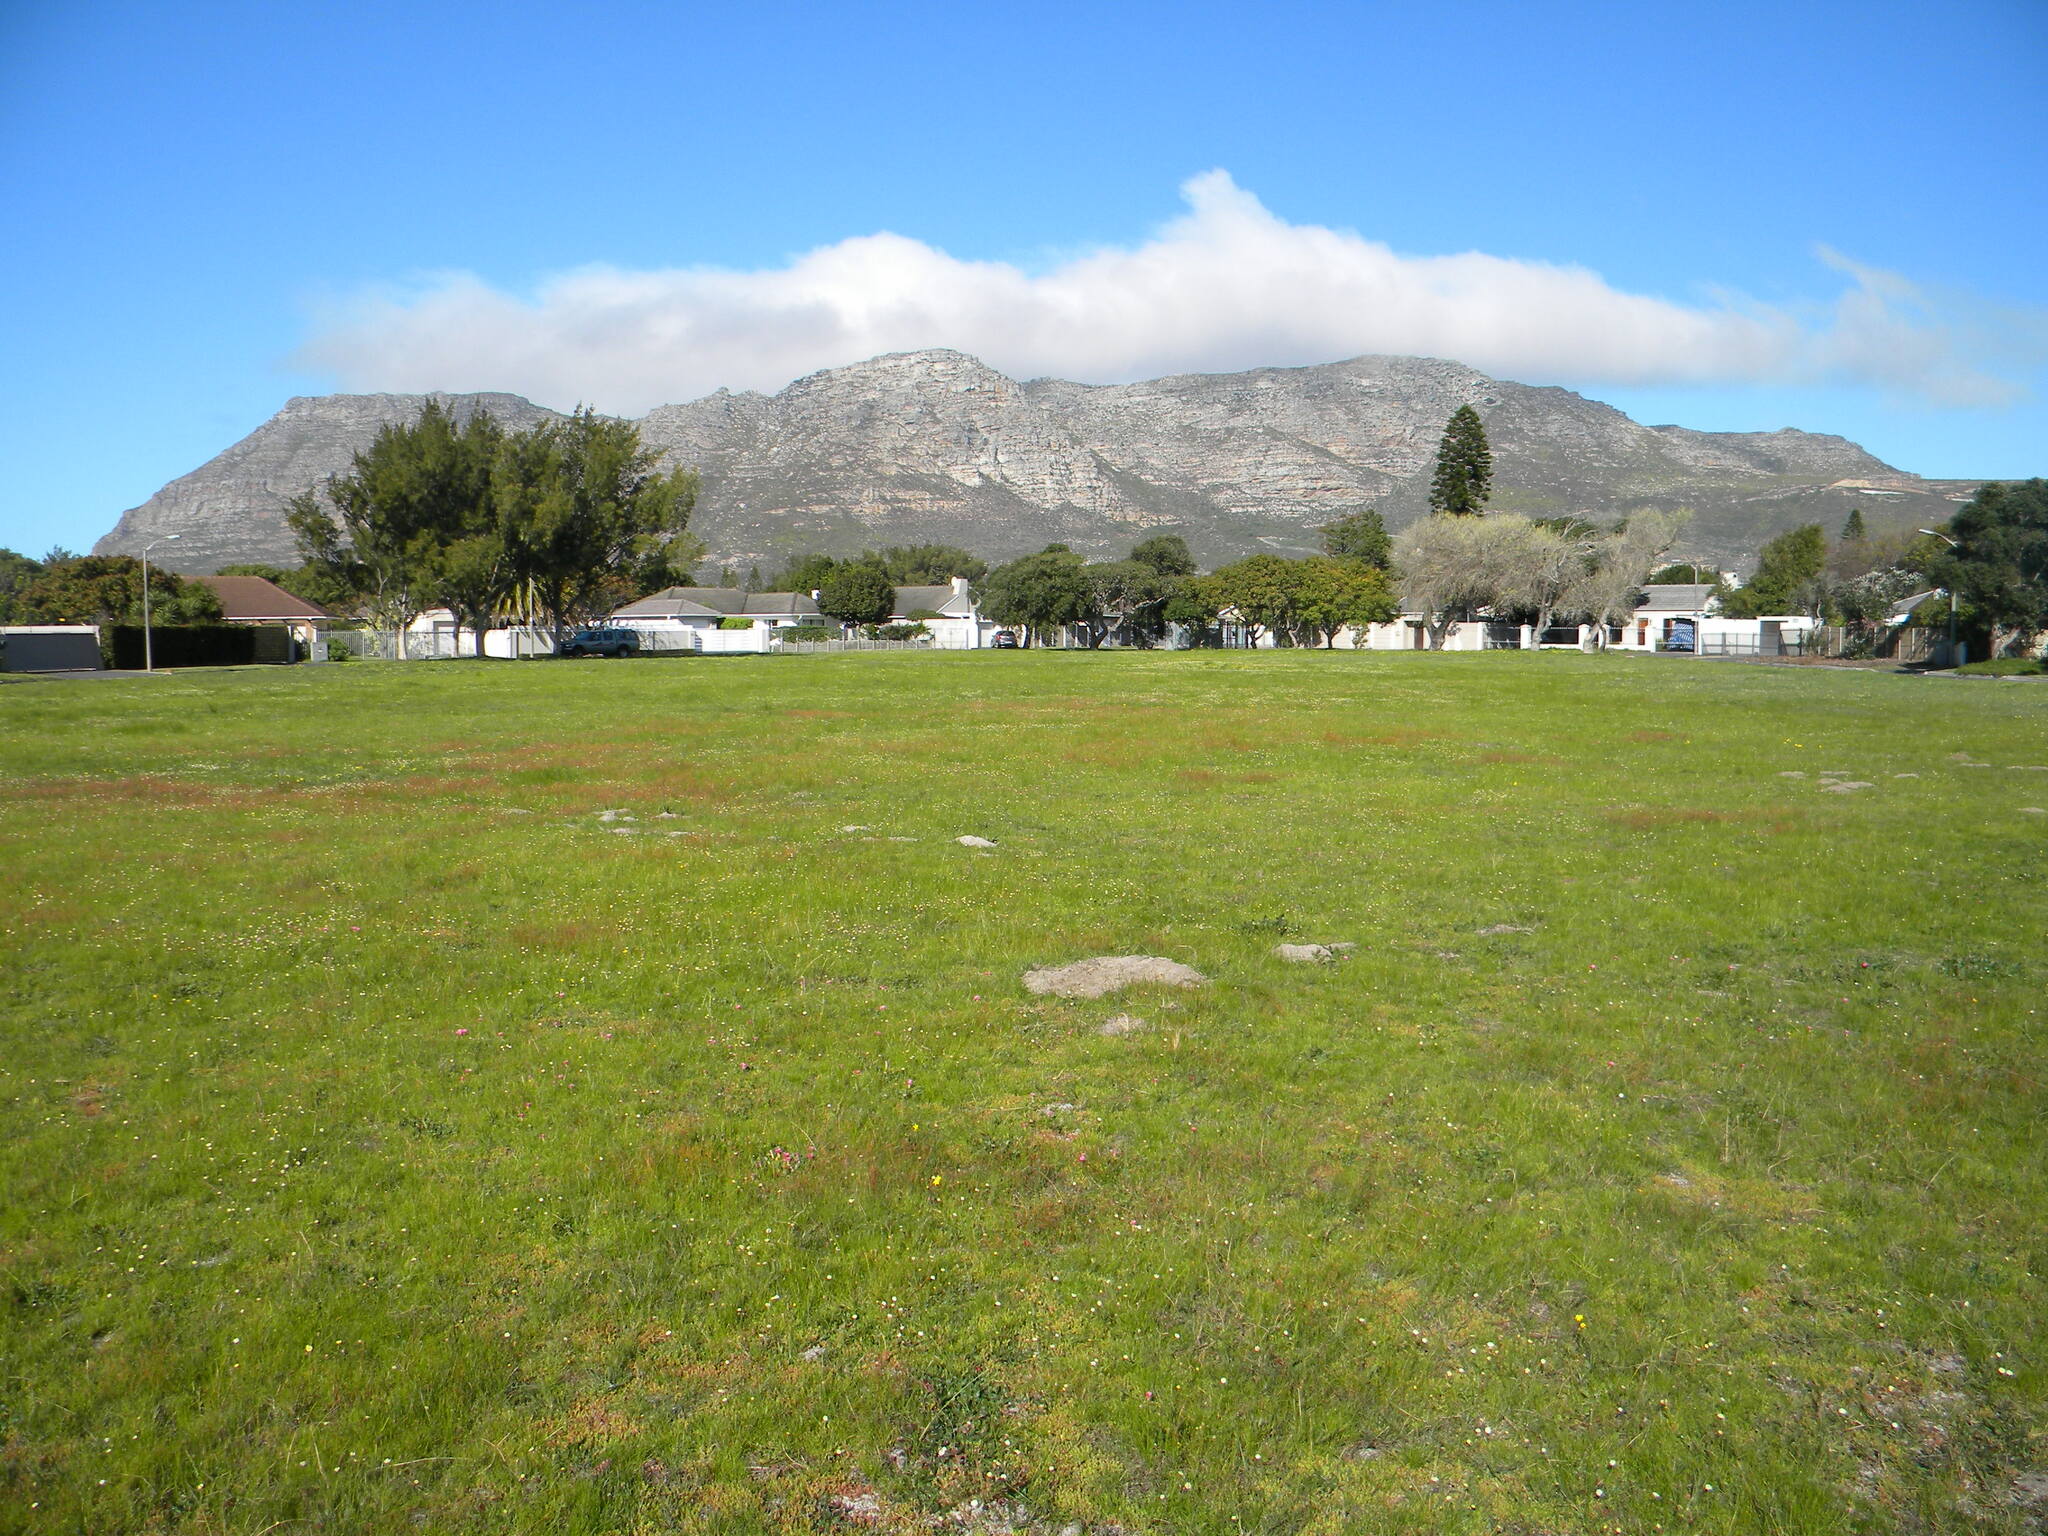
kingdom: Plantae
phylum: Tracheophyta
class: Magnoliopsida
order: Oxalidales
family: Oxalidaceae
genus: Oxalis
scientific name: Oxalis purpurea
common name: Purple woodsorrel
